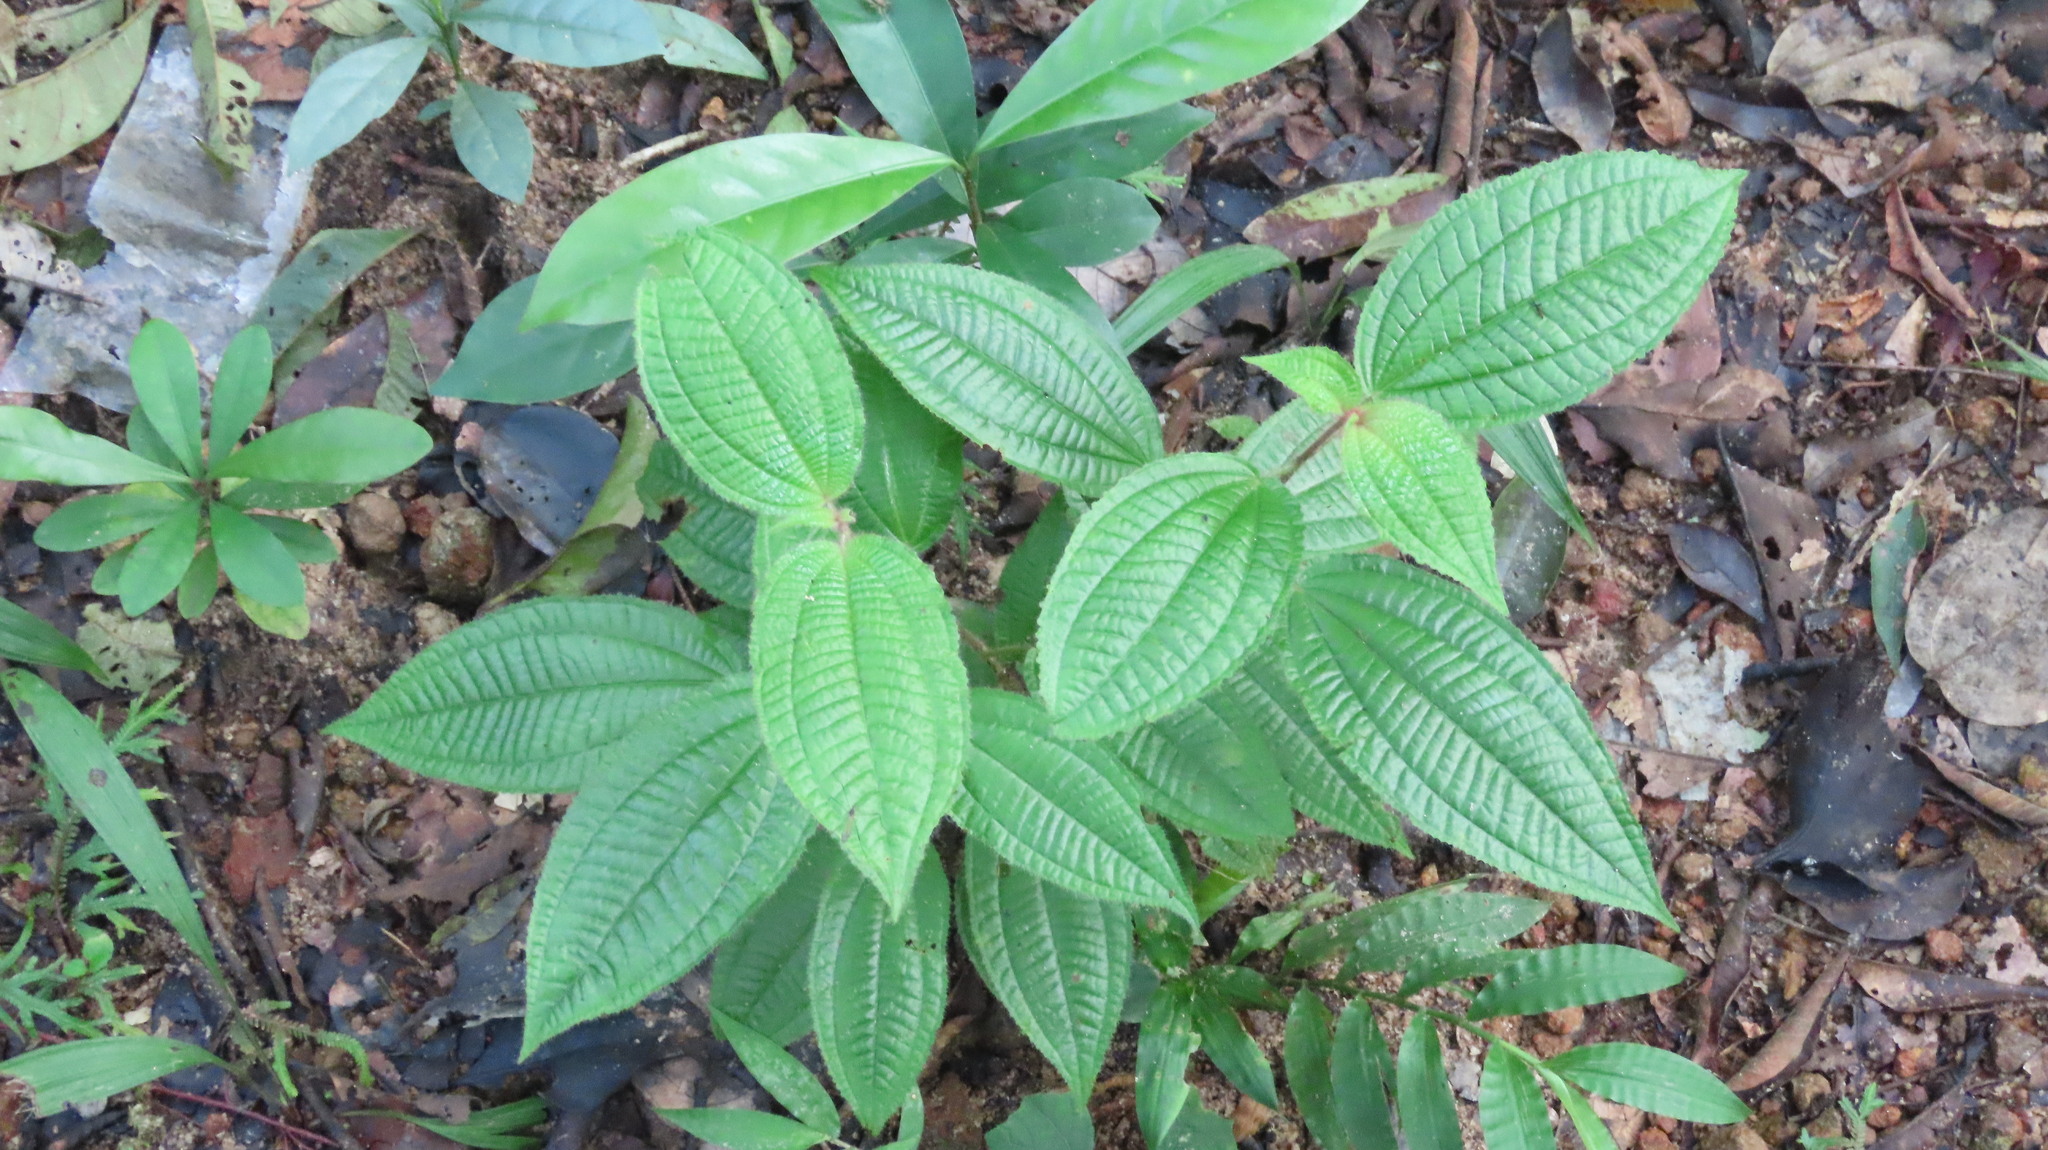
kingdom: Plantae
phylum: Tracheophyta
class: Magnoliopsida
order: Myrtales
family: Melastomataceae
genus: Miconia
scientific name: Miconia crenata
